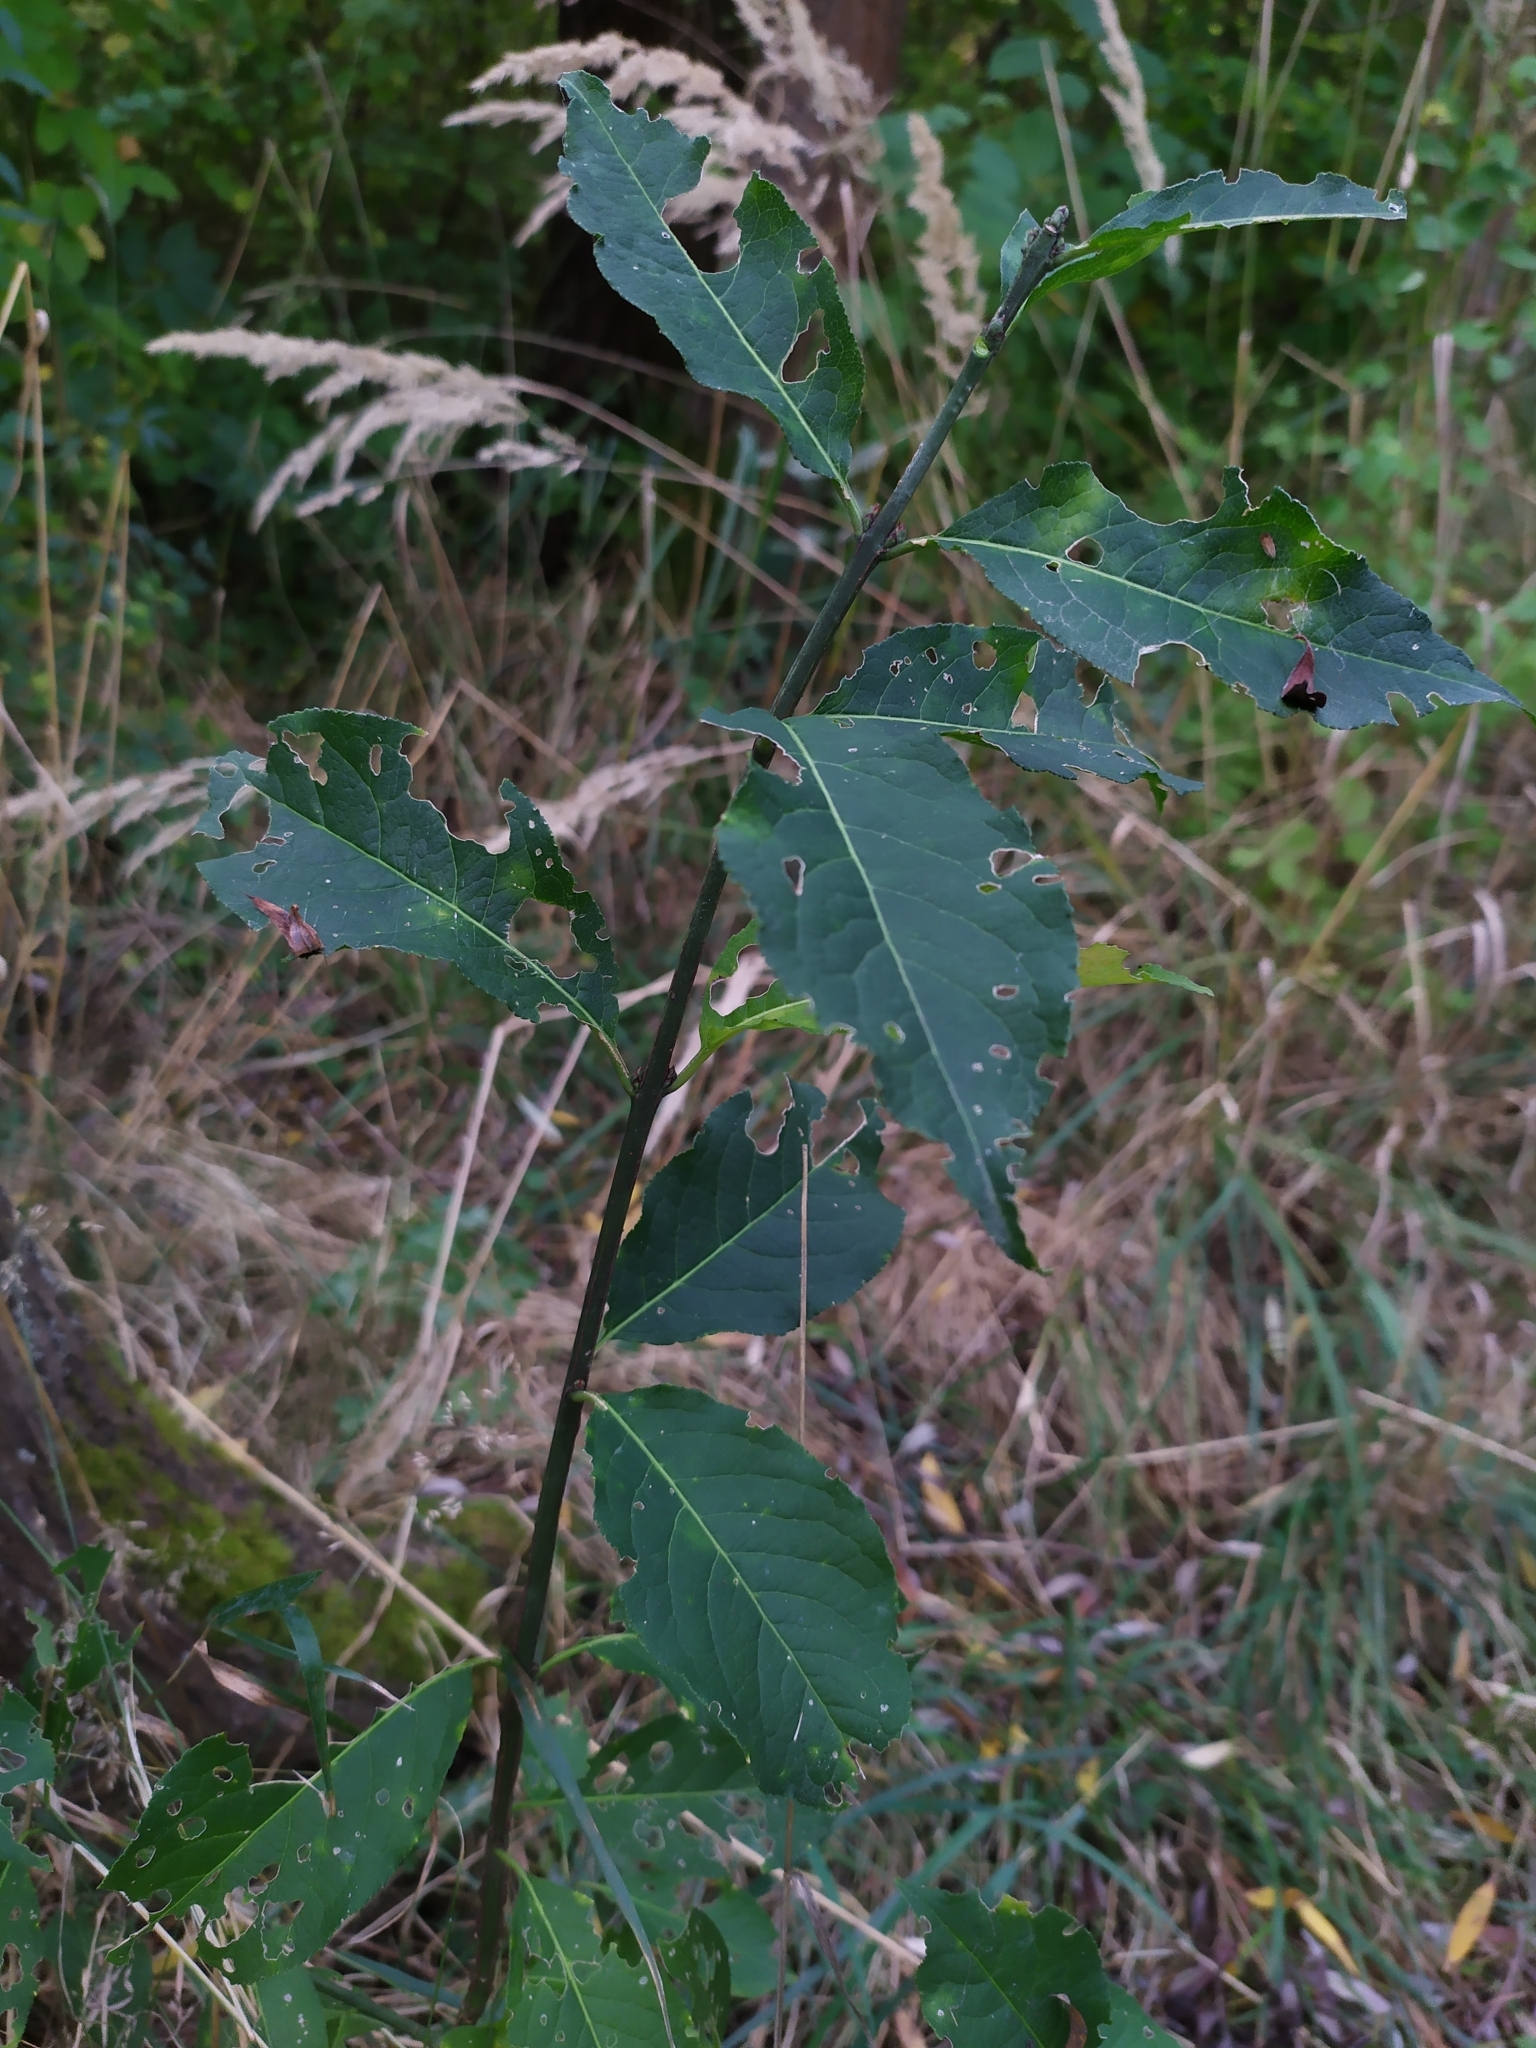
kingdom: Plantae
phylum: Tracheophyta
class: Magnoliopsida
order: Celastrales
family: Celastraceae
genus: Euonymus
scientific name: Euonymus europaeus
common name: Spindle
